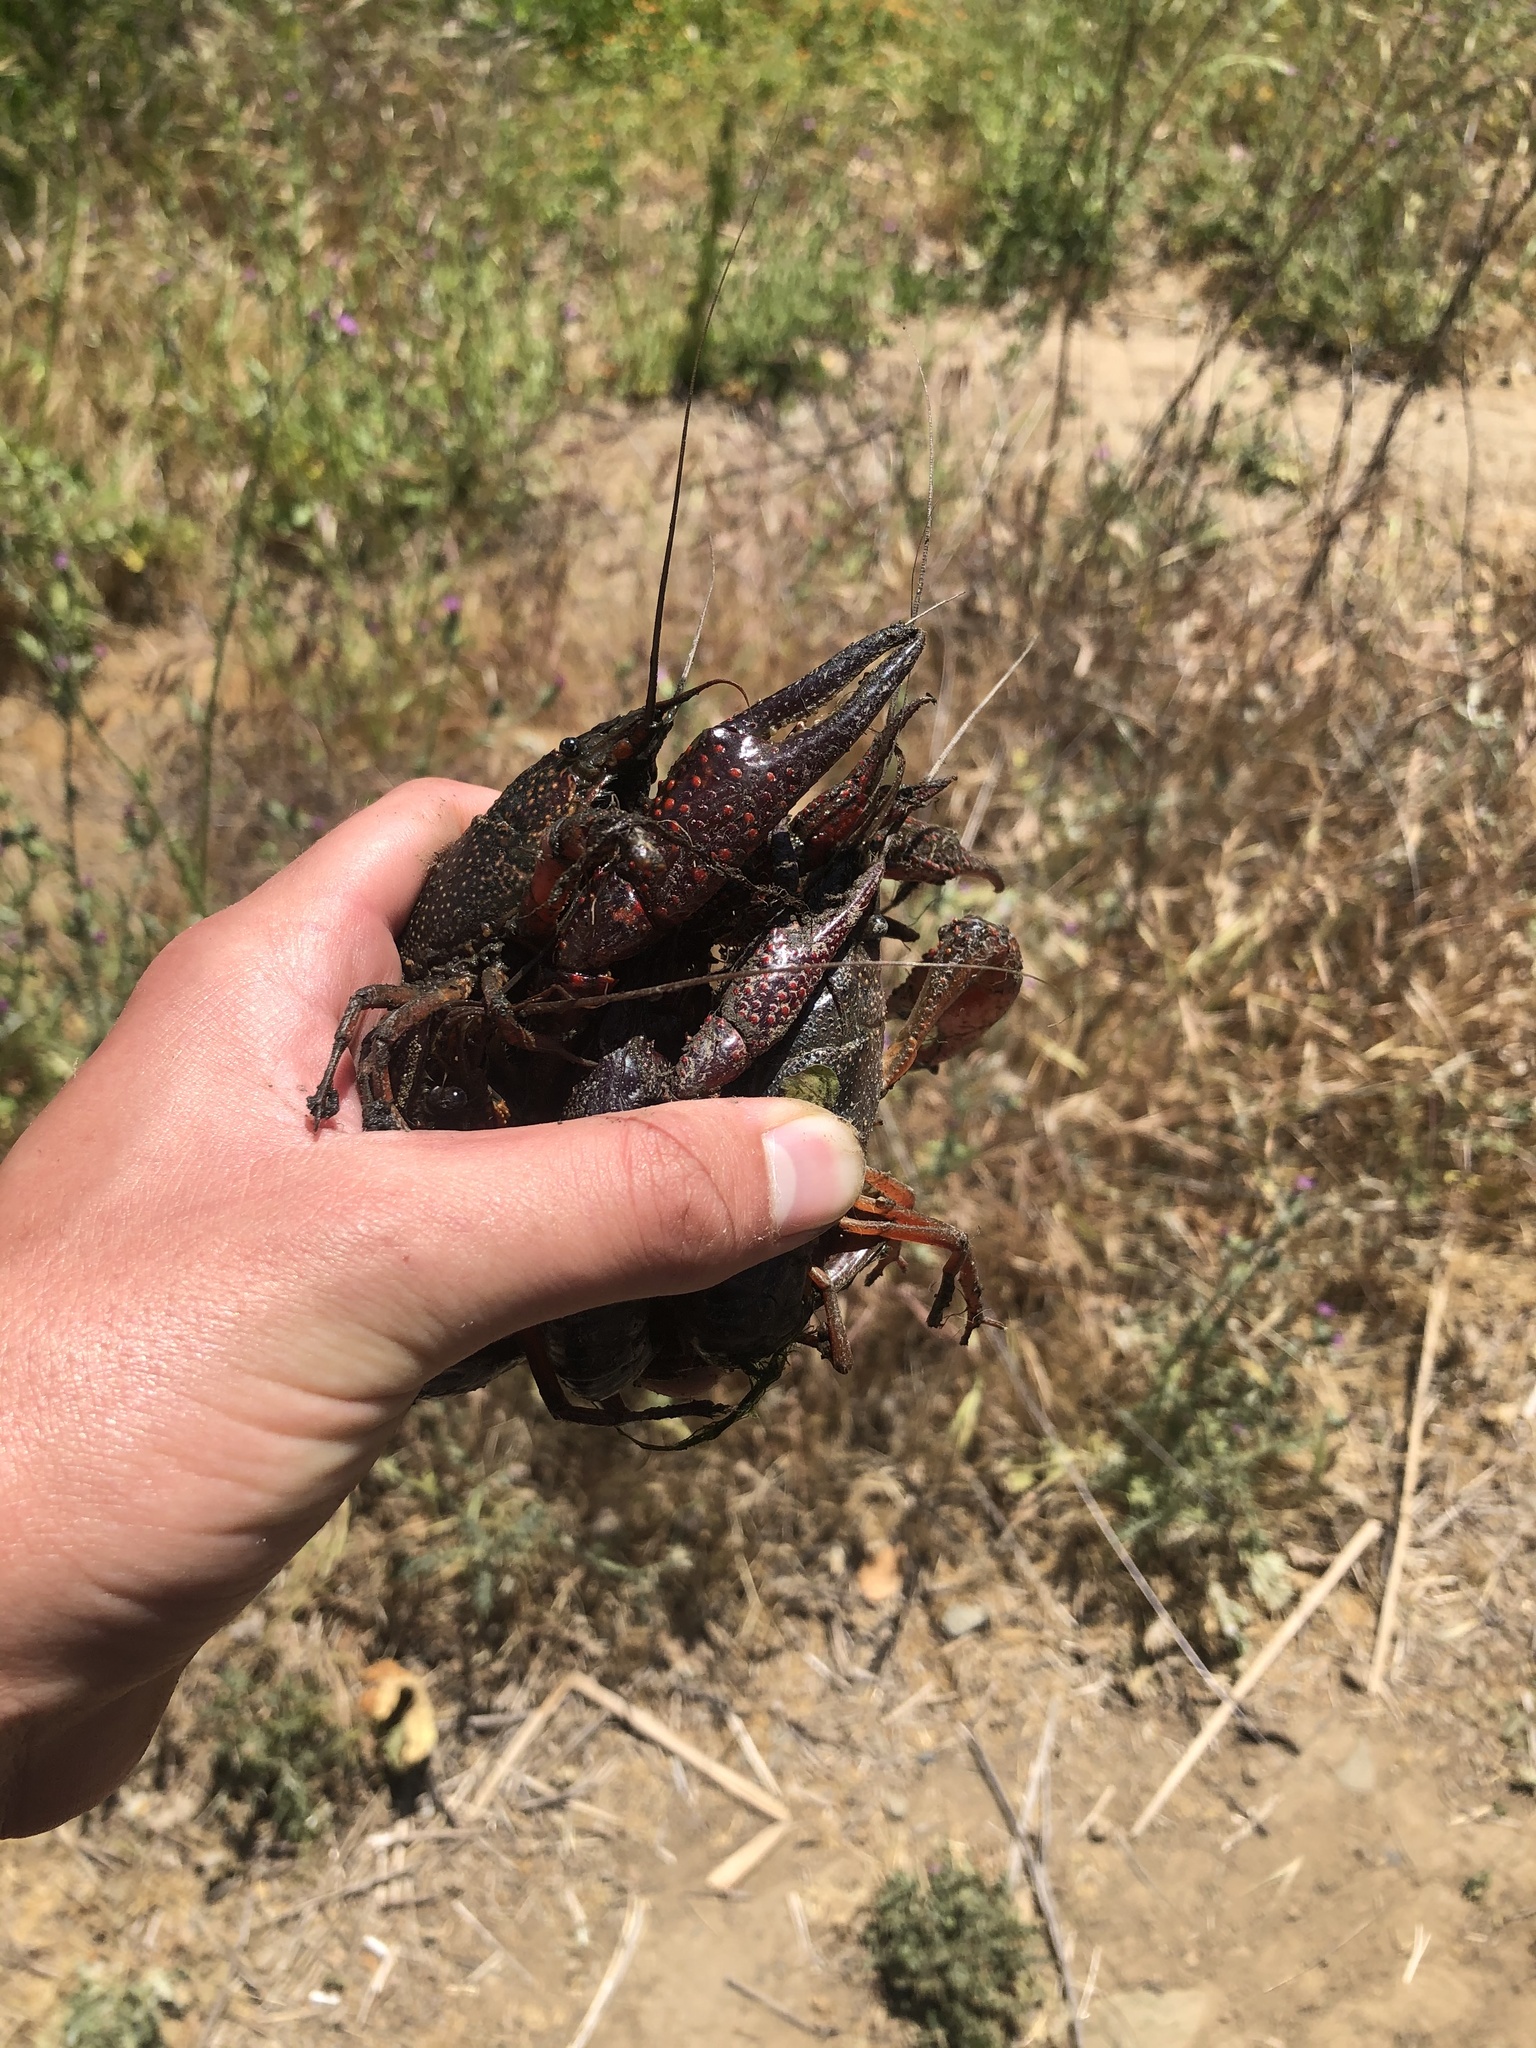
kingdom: Animalia
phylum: Arthropoda
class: Malacostraca
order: Decapoda
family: Cambaridae
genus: Procambarus
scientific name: Procambarus clarkii
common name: Red swamp crayfish
